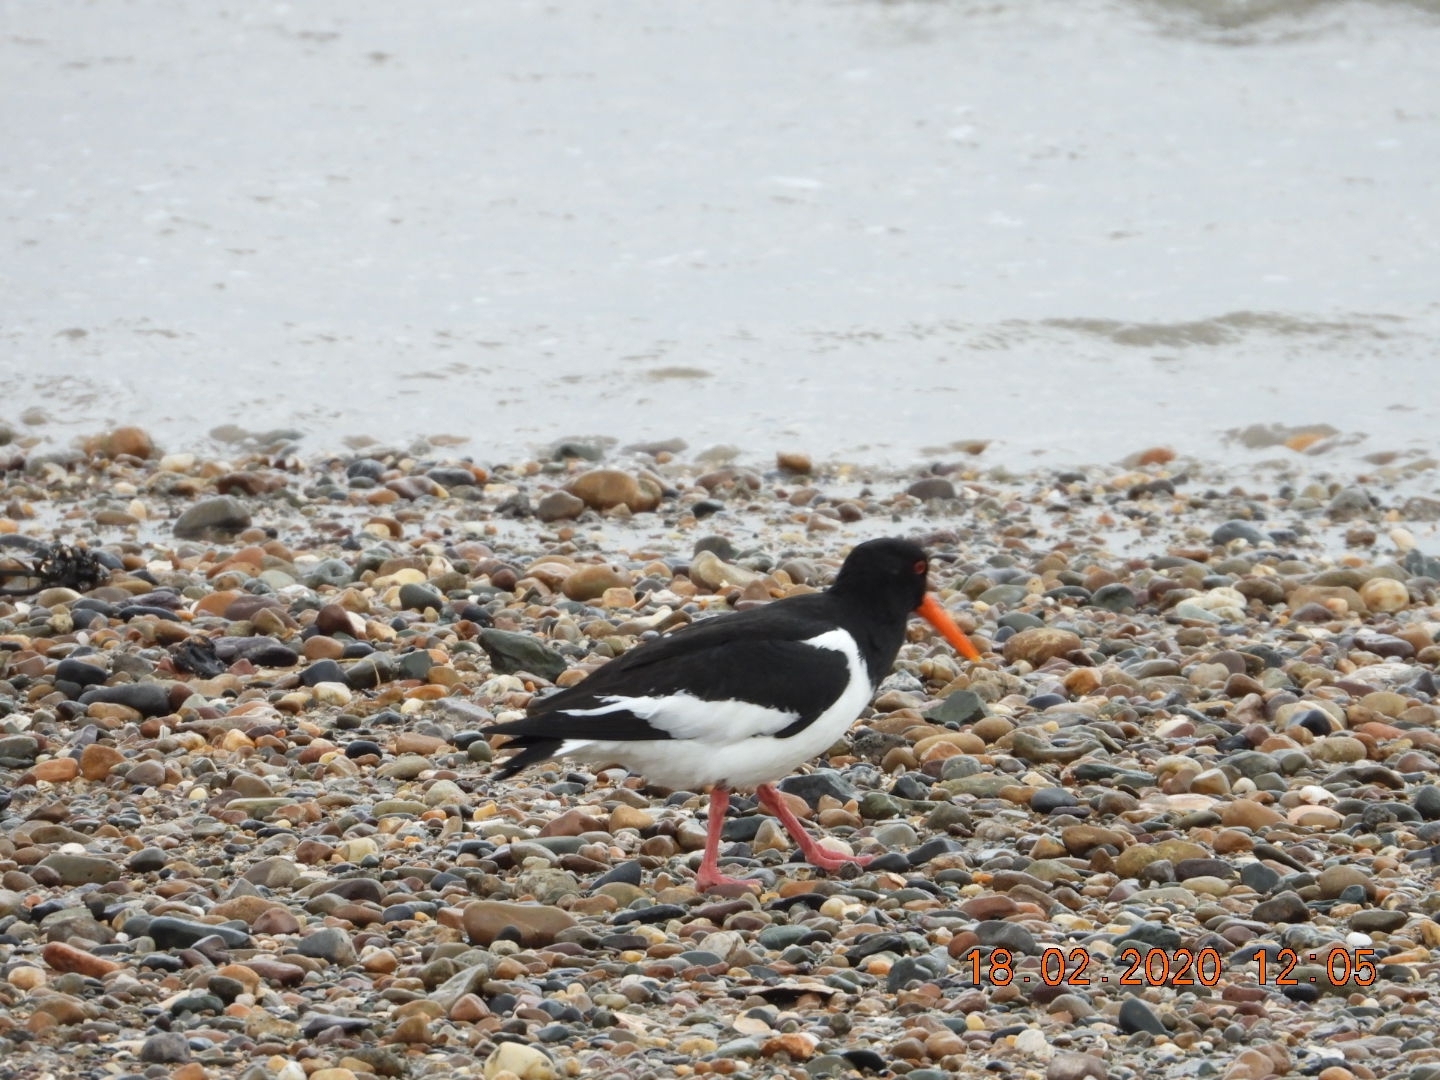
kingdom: Animalia
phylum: Chordata
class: Aves
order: Charadriiformes
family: Haematopodidae
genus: Haematopus
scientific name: Haematopus ostralegus
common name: Eurasian oystercatcher
